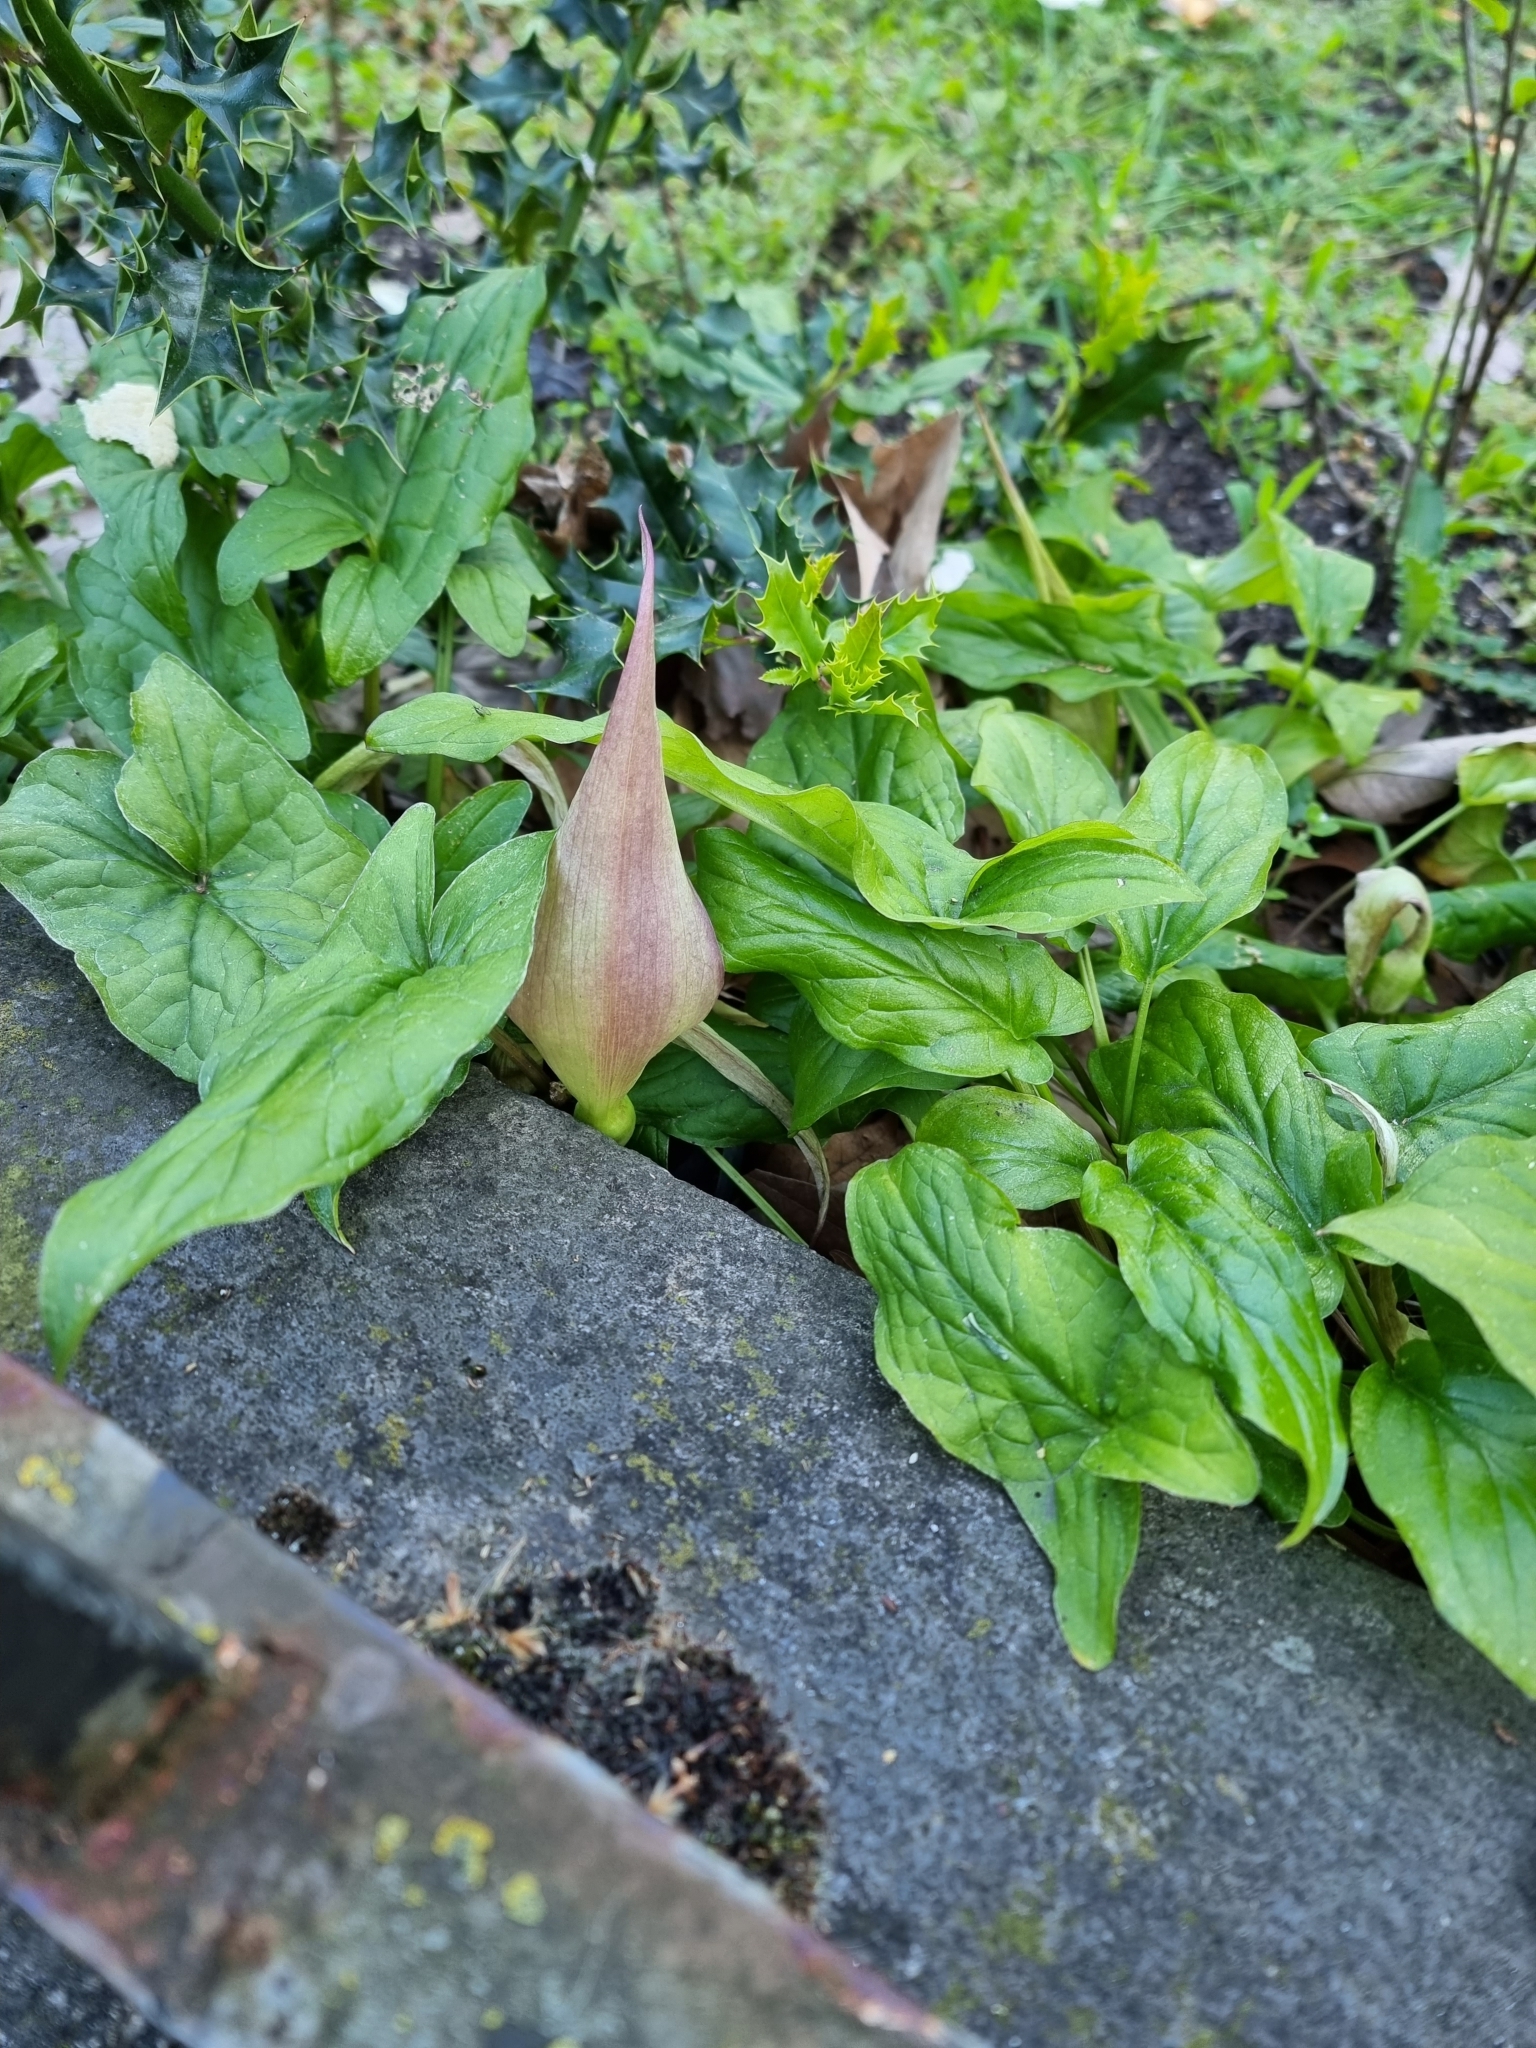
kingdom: Plantae
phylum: Tracheophyta
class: Liliopsida
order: Alismatales
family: Araceae
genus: Arum
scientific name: Arum maculatum
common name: Lords-and-ladies
